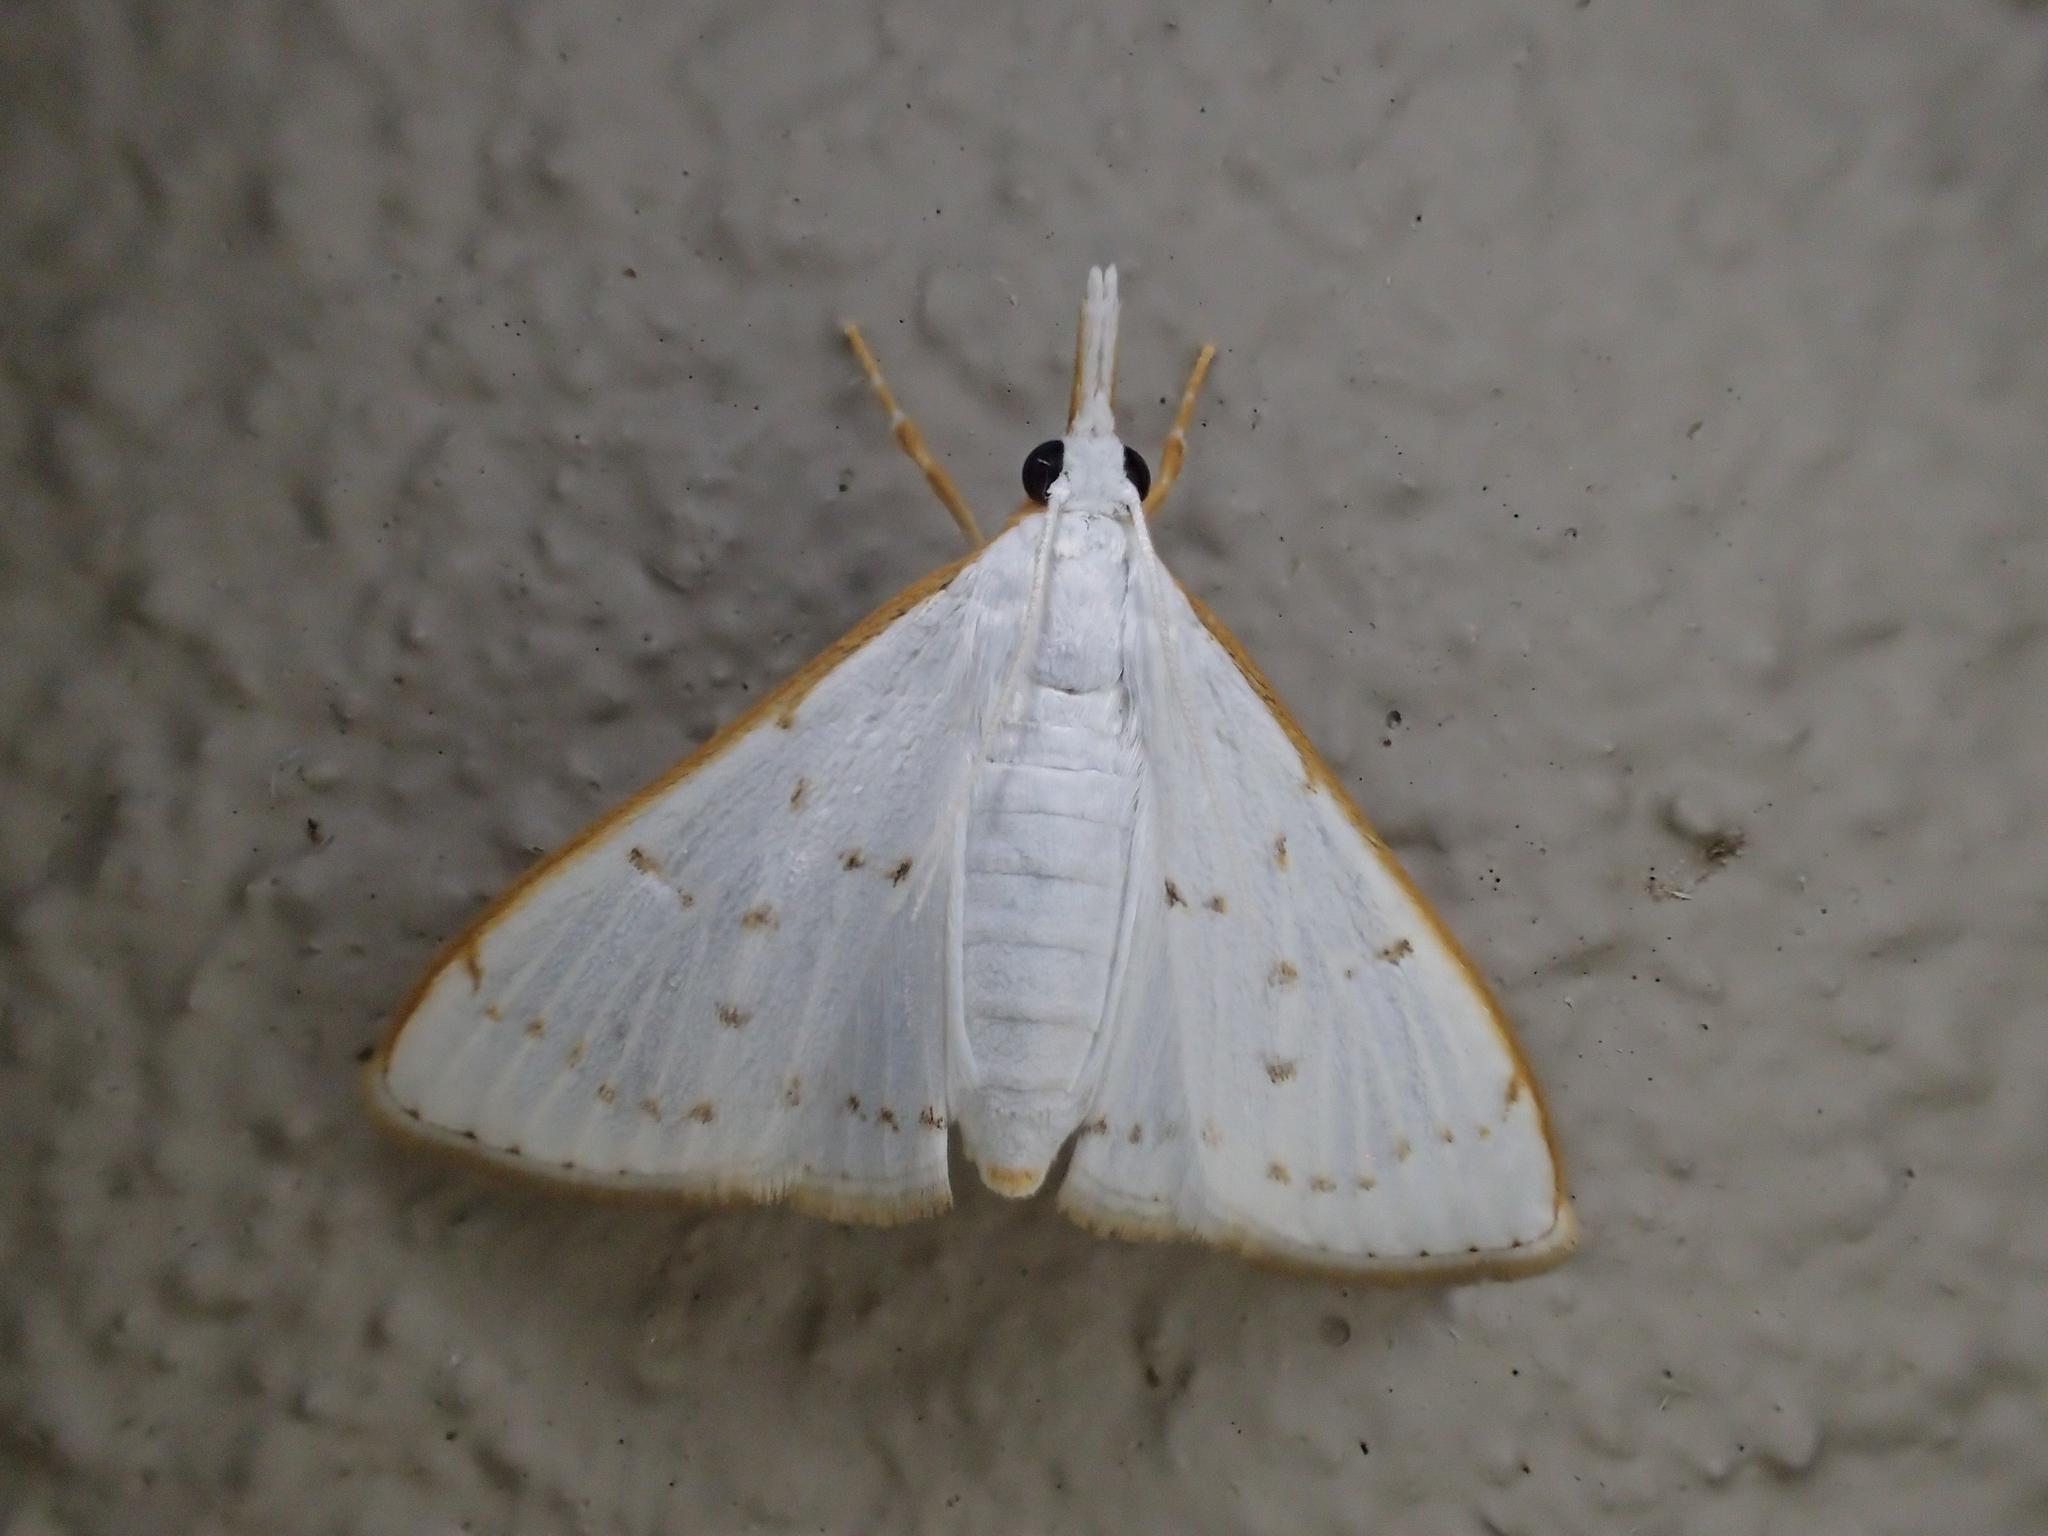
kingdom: Animalia
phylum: Arthropoda
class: Insecta
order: Lepidoptera
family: Crambidae
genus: Cirrhochrista
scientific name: Cirrhochrista punctulata
